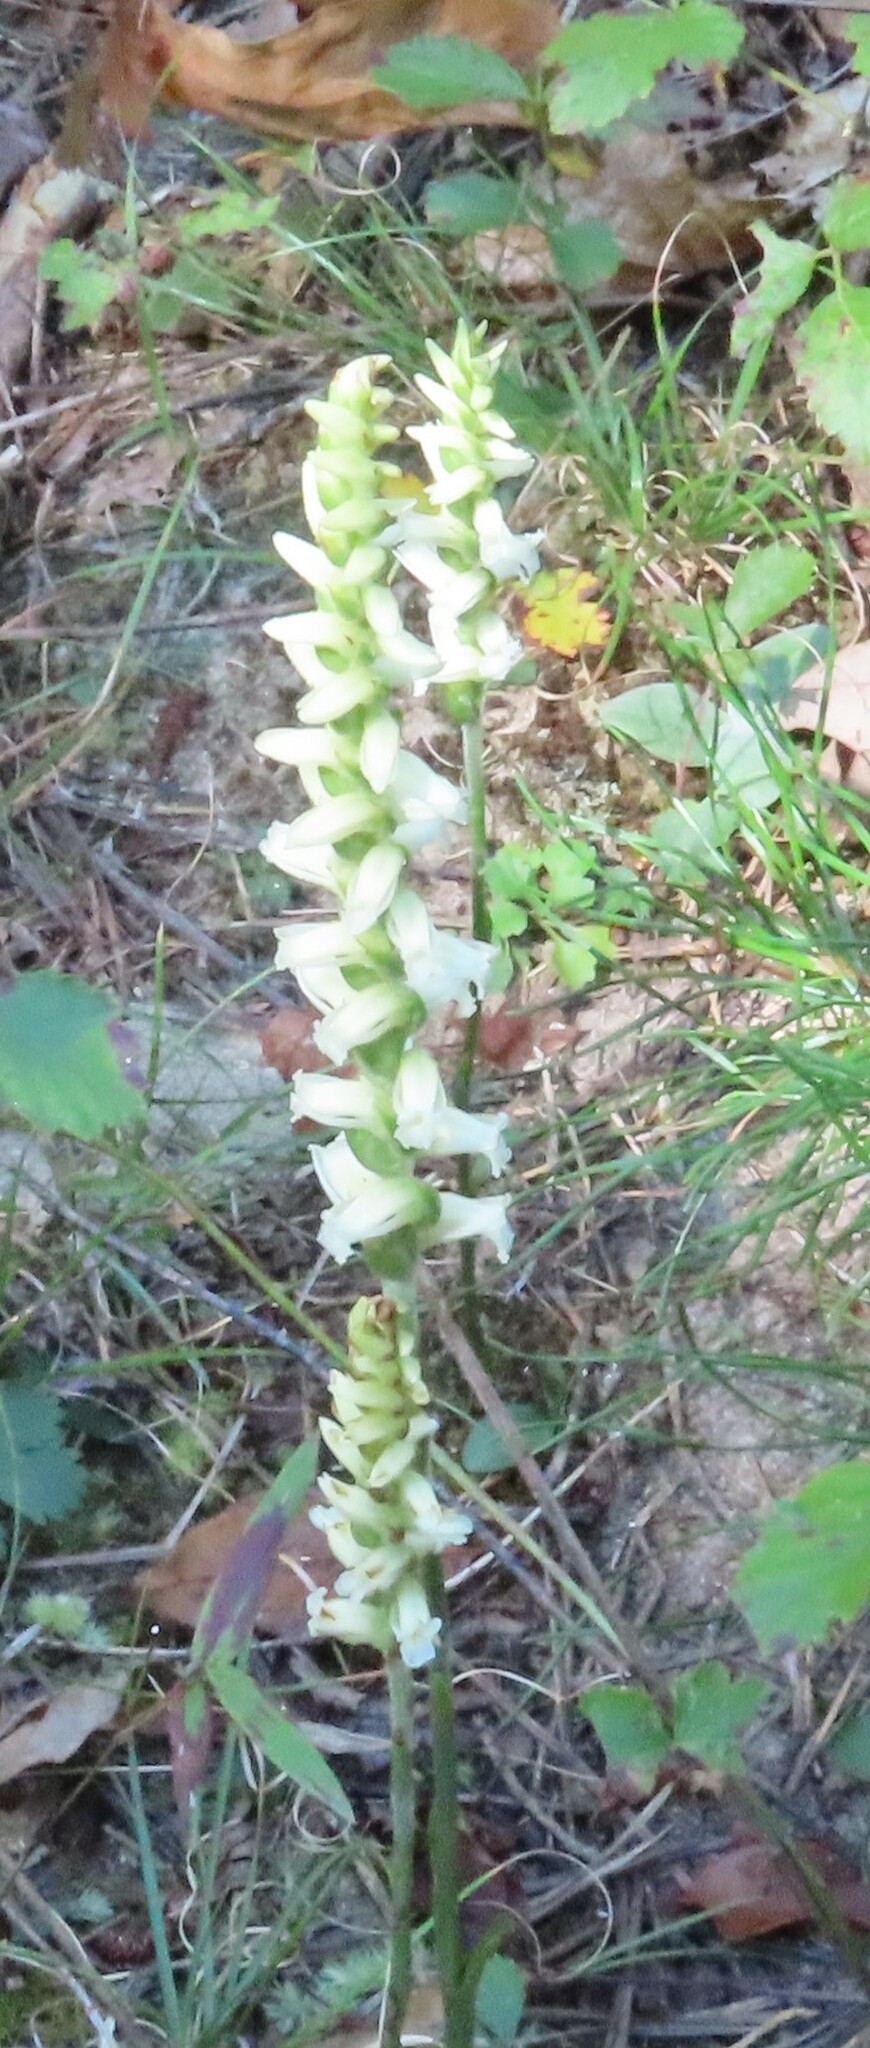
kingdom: Plantae
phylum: Tracheophyta
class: Liliopsida
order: Asparagales
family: Orchidaceae
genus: Spiranthes
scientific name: Spiranthes ochroleuca
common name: Yellow ladies'-tresses
